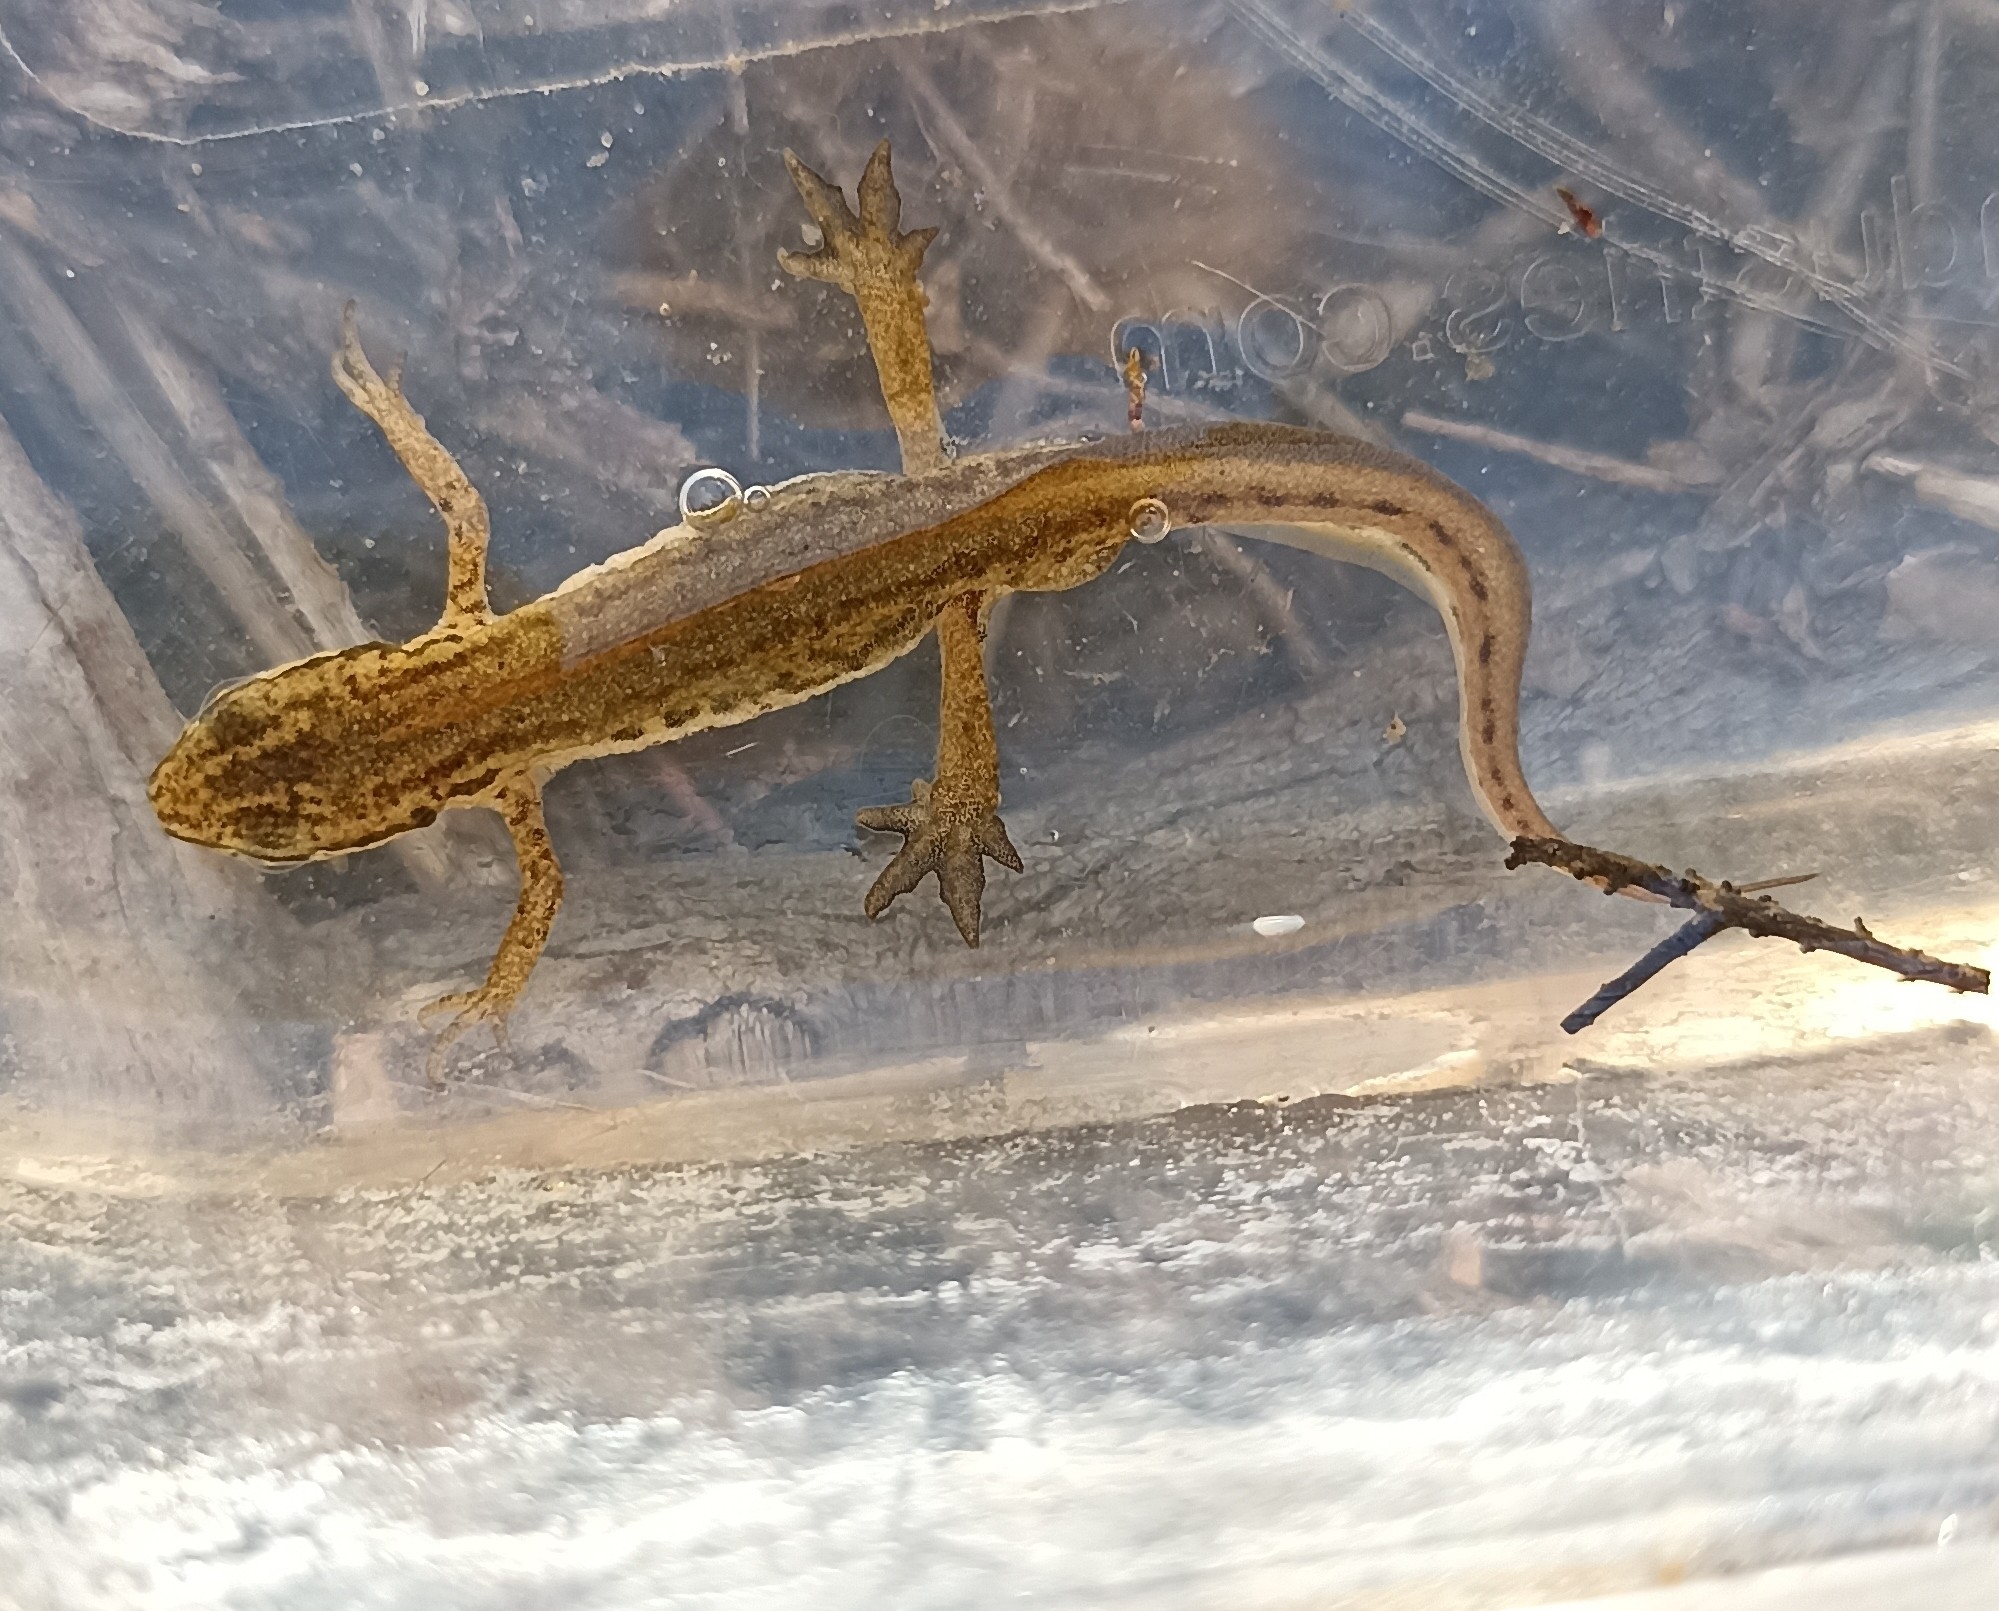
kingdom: Animalia
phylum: Chordata
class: Amphibia
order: Caudata
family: Salamandridae
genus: Lissotriton
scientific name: Lissotriton helveticus
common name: Palmate newt
